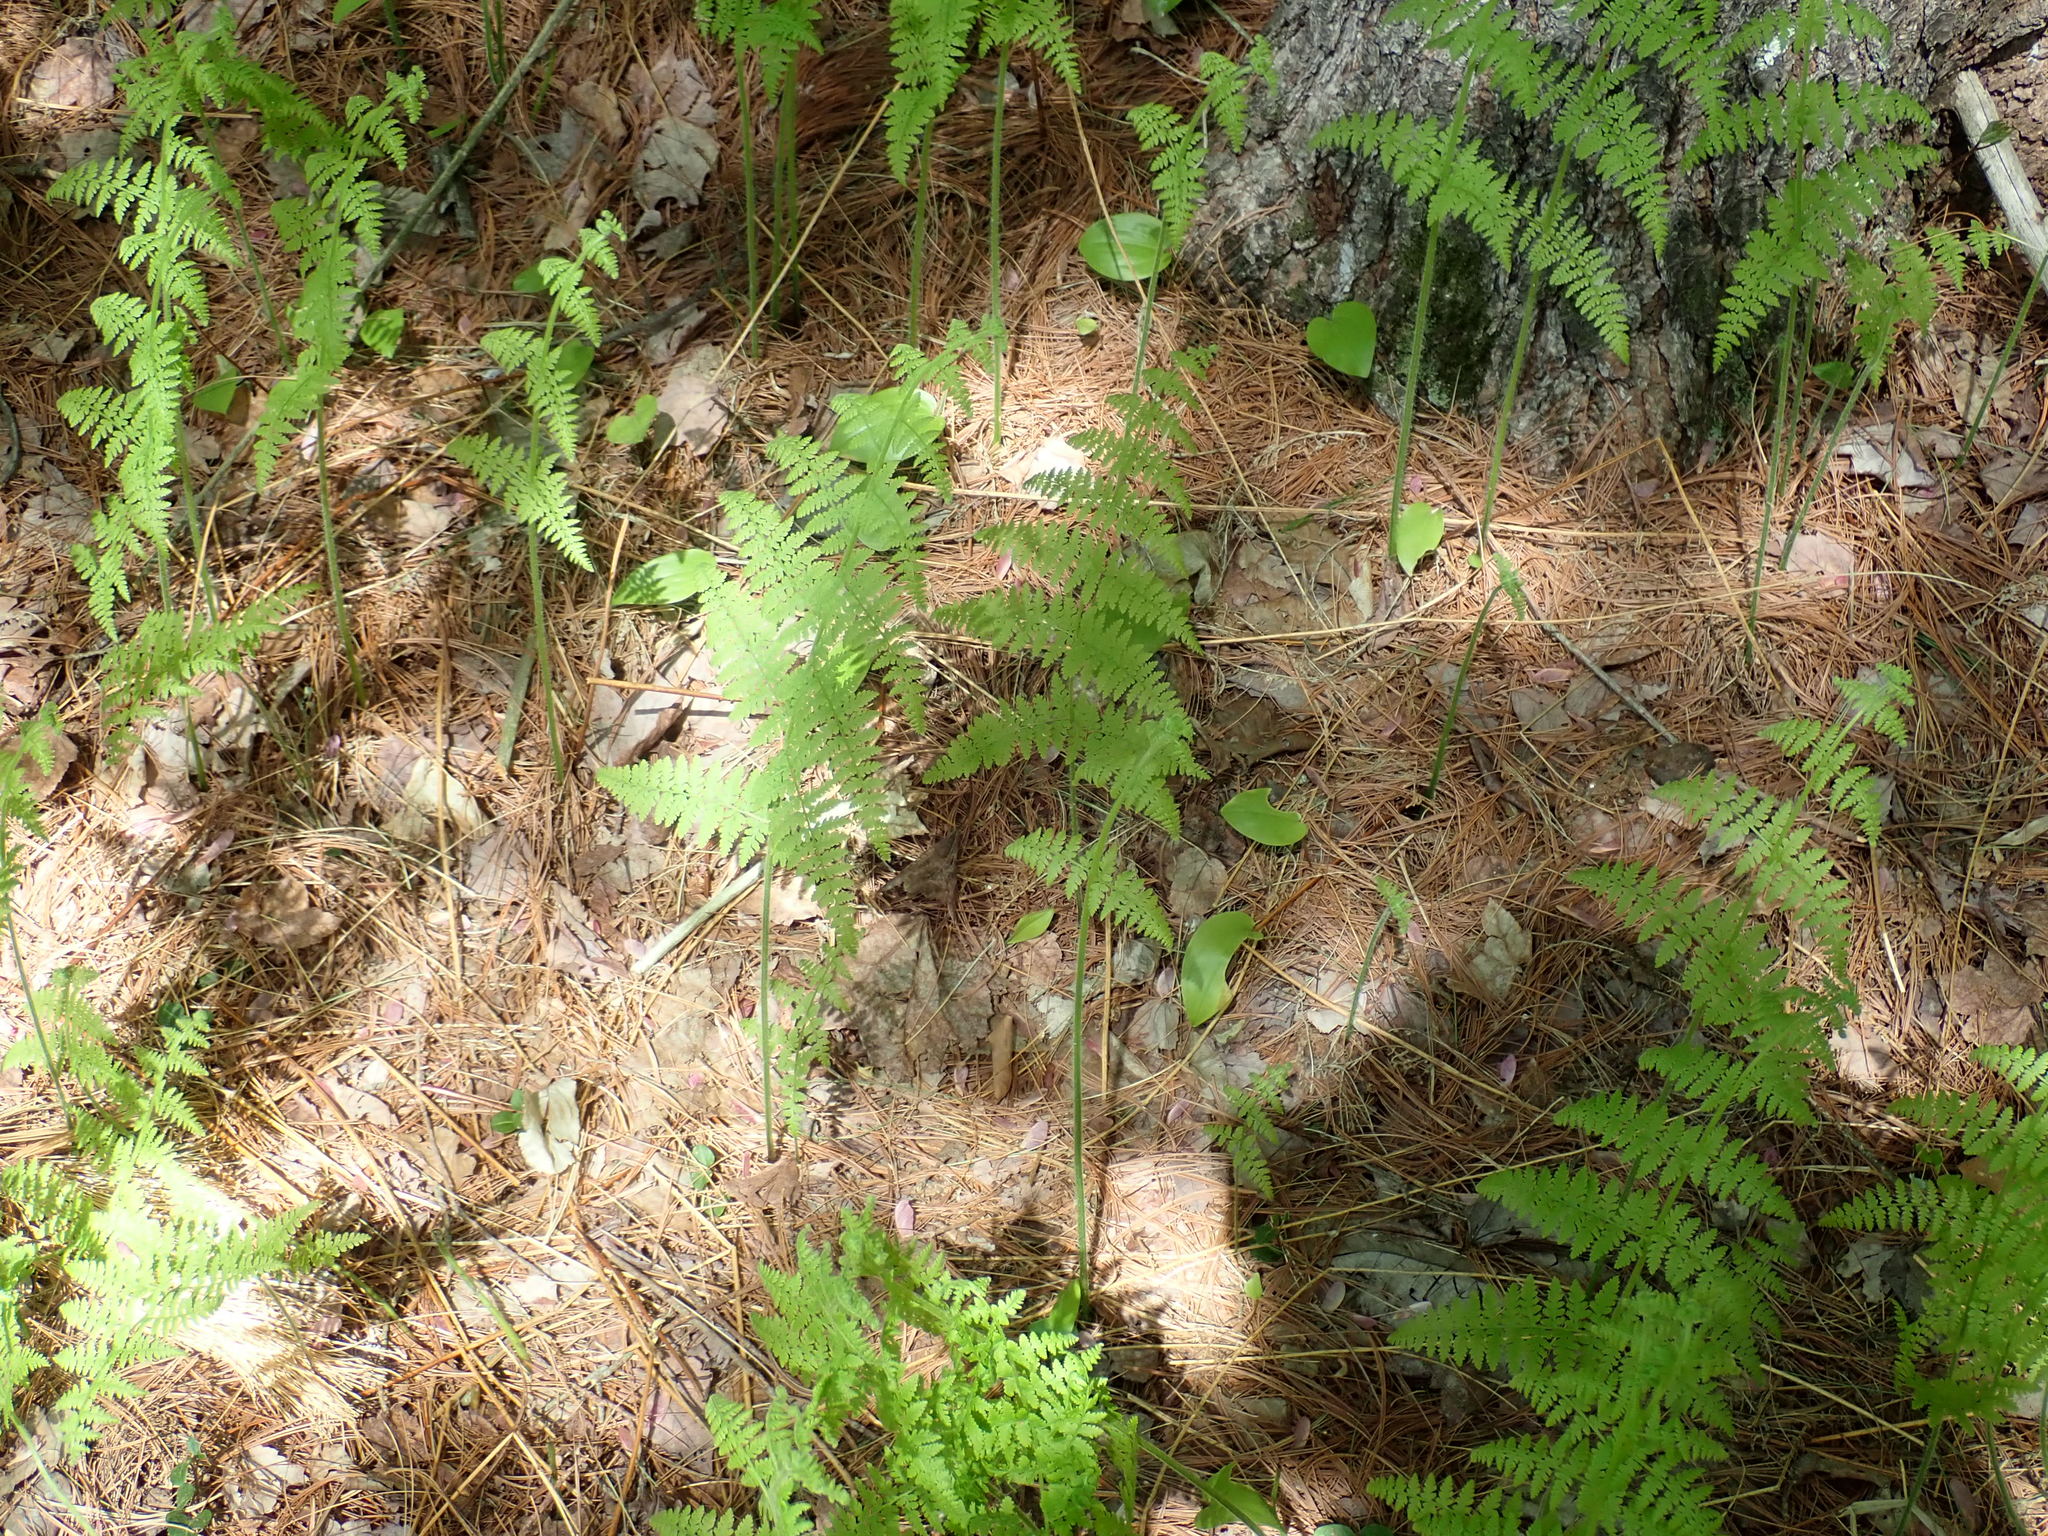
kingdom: Plantae
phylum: Tracheophyta
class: Polypodiopsida
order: Polypodiales
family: Dennstaedtiaceae
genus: Sitobolium
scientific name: Sitobolium punctilobum
